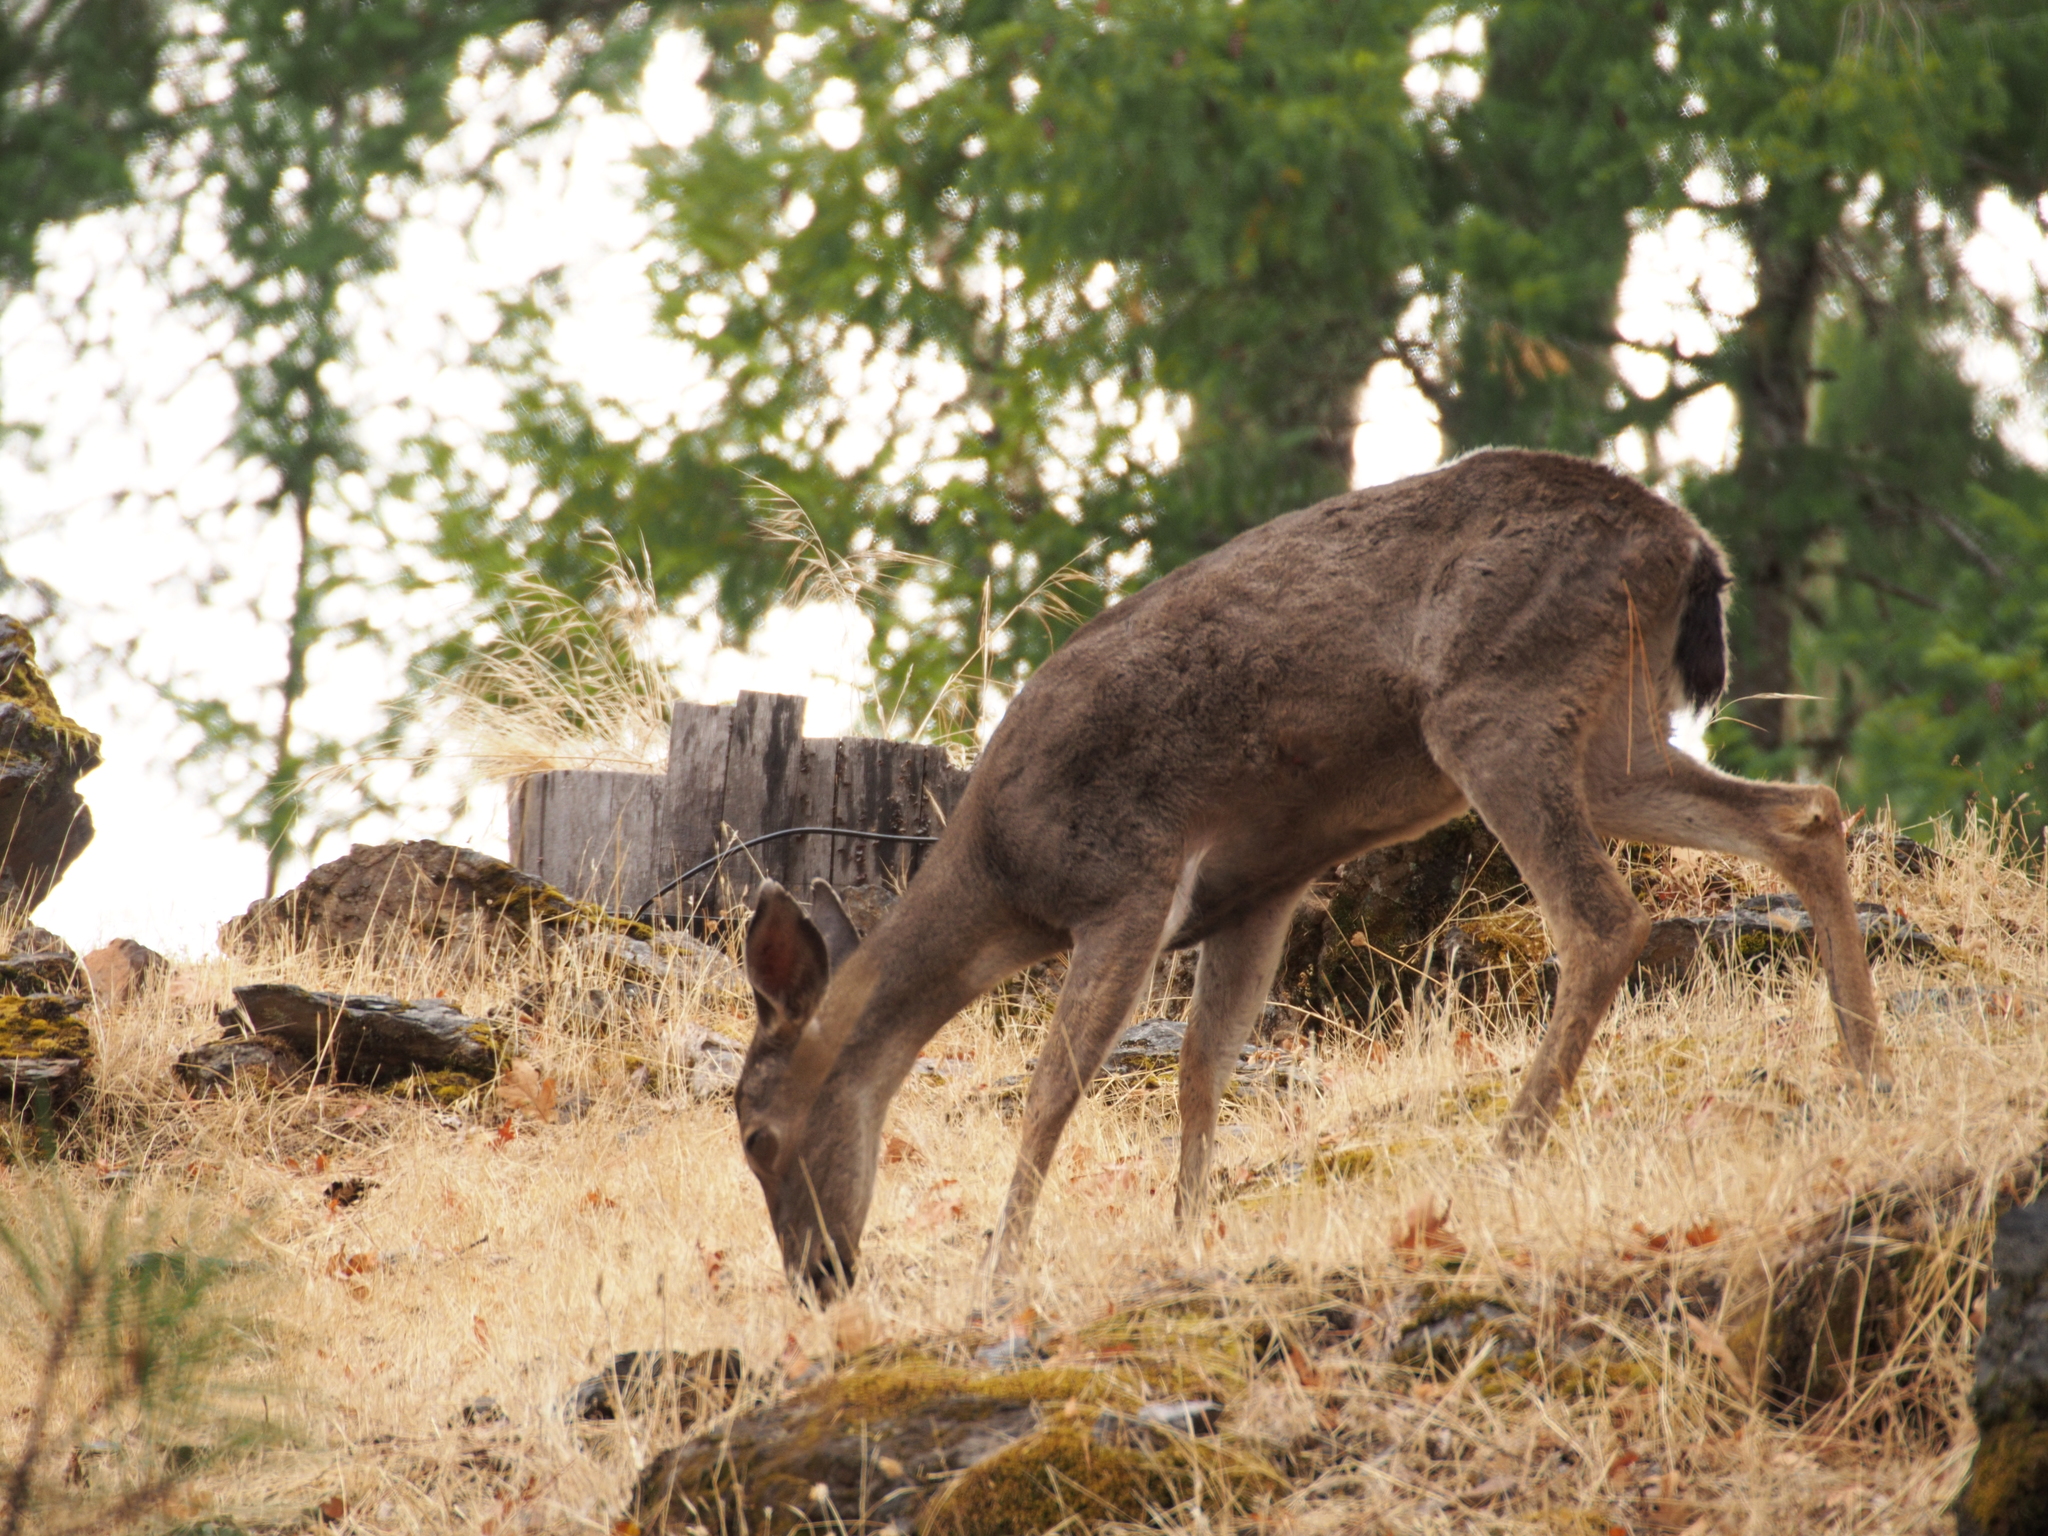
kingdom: Animalia
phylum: Chordata
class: Mammalia
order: Artiodactyla
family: Cervidae
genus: Odocoileus
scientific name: Odocoileus hemionus
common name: Mule deer
